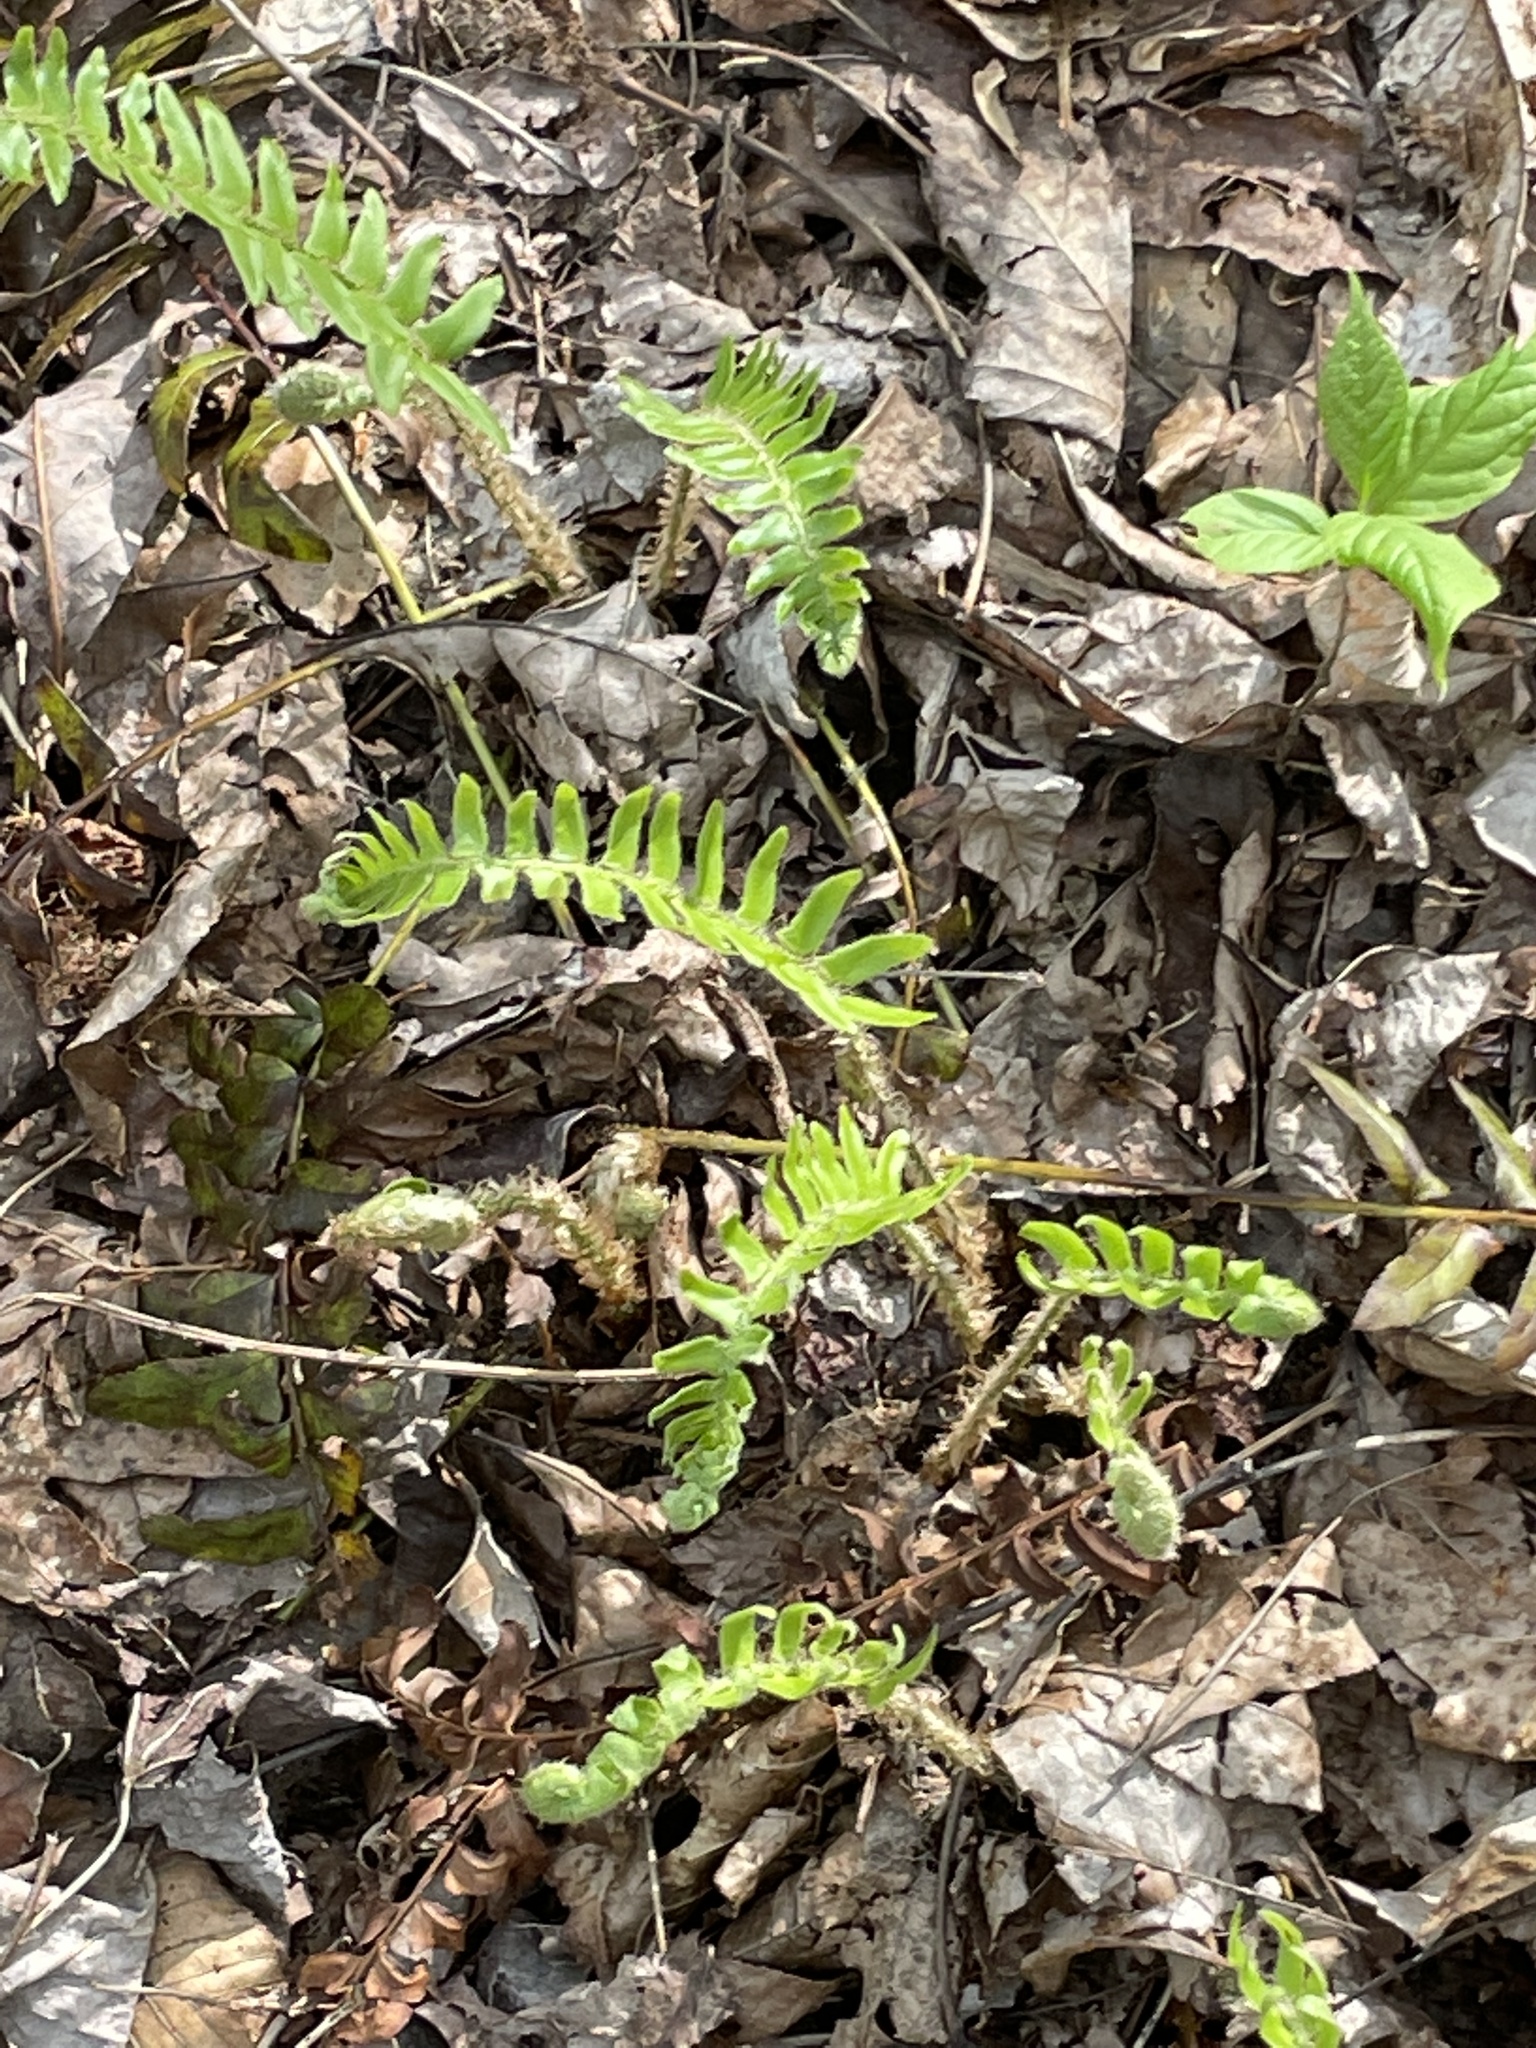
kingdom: Plantae
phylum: Tracheophyta
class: Polypodiopsida
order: Polypodiales
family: Dryopteridaceae
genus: Polystichum
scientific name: Polystichum acrostichoides
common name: Christmas fern
